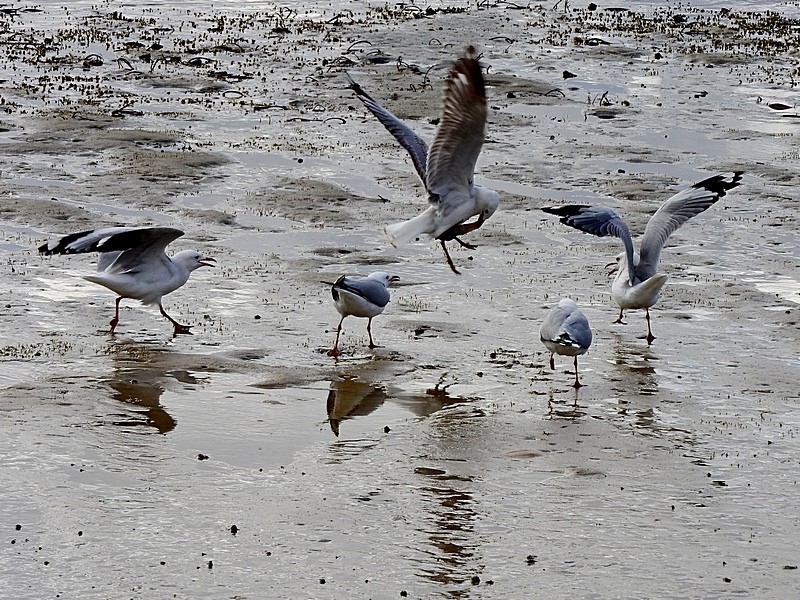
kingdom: Animalia
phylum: Chordata
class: Aves
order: Charadriiformes
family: Laridae
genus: Chroicocephalus
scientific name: Chroicocephalus novaehollandiae
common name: Silver gull
